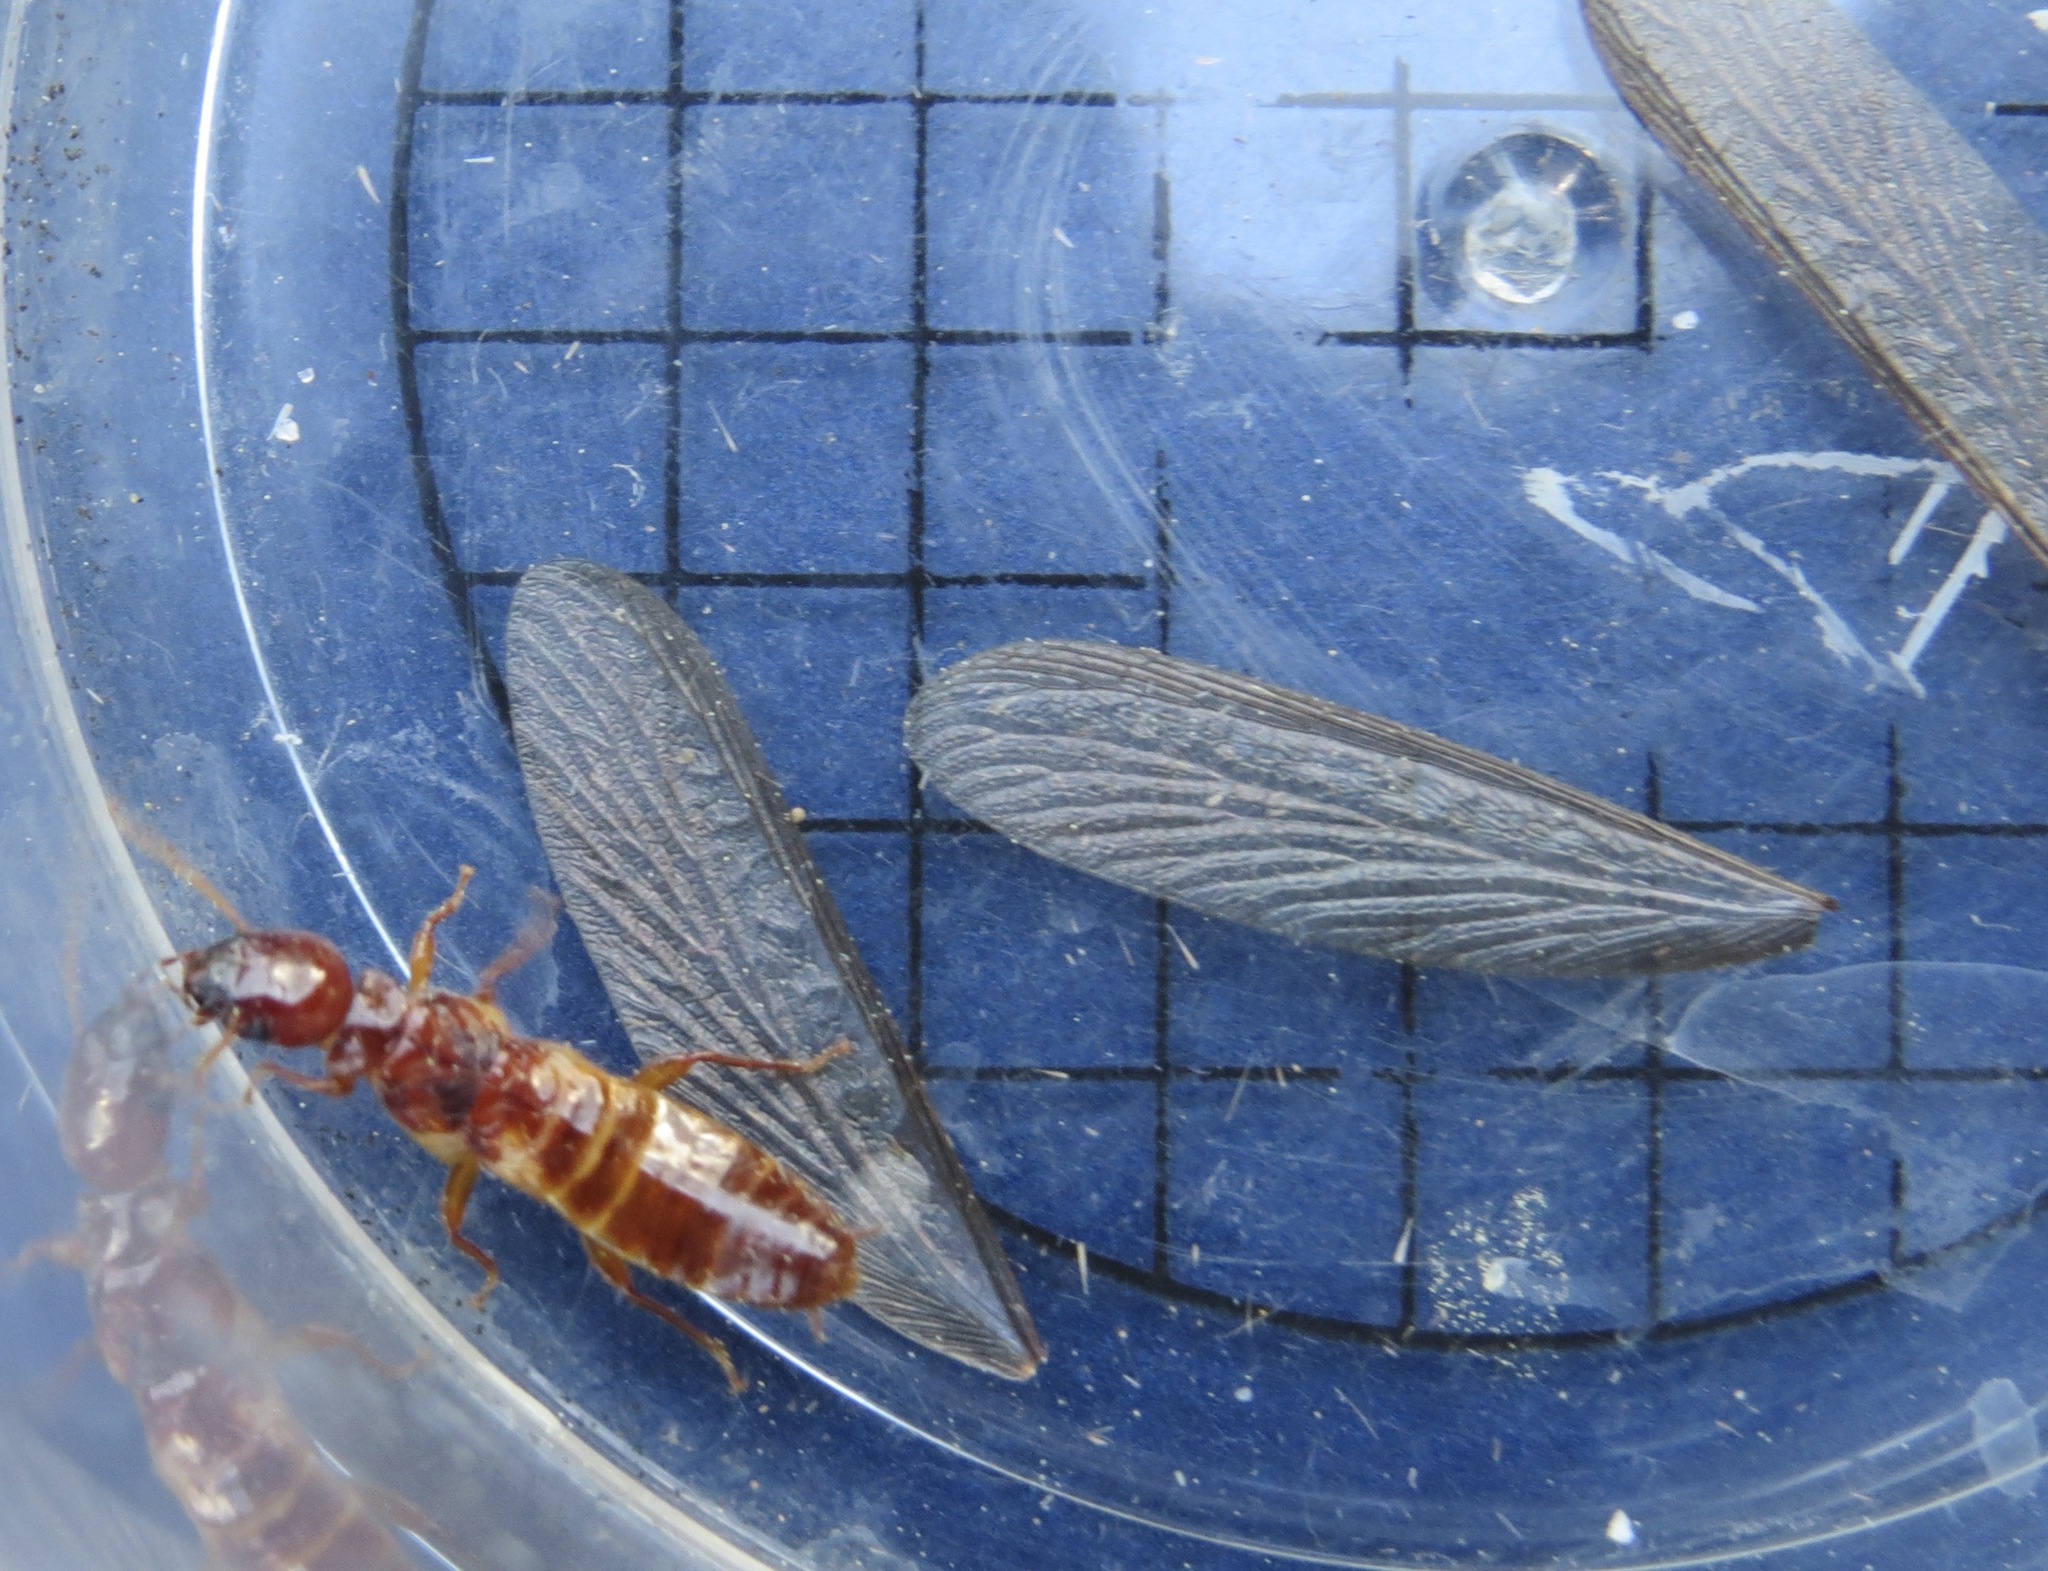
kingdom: Animalia
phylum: Arthropoda
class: Insecta
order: Blattodea
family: Archotermopsidae
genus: Zootermopsis
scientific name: Zootermopsis nevadensis
